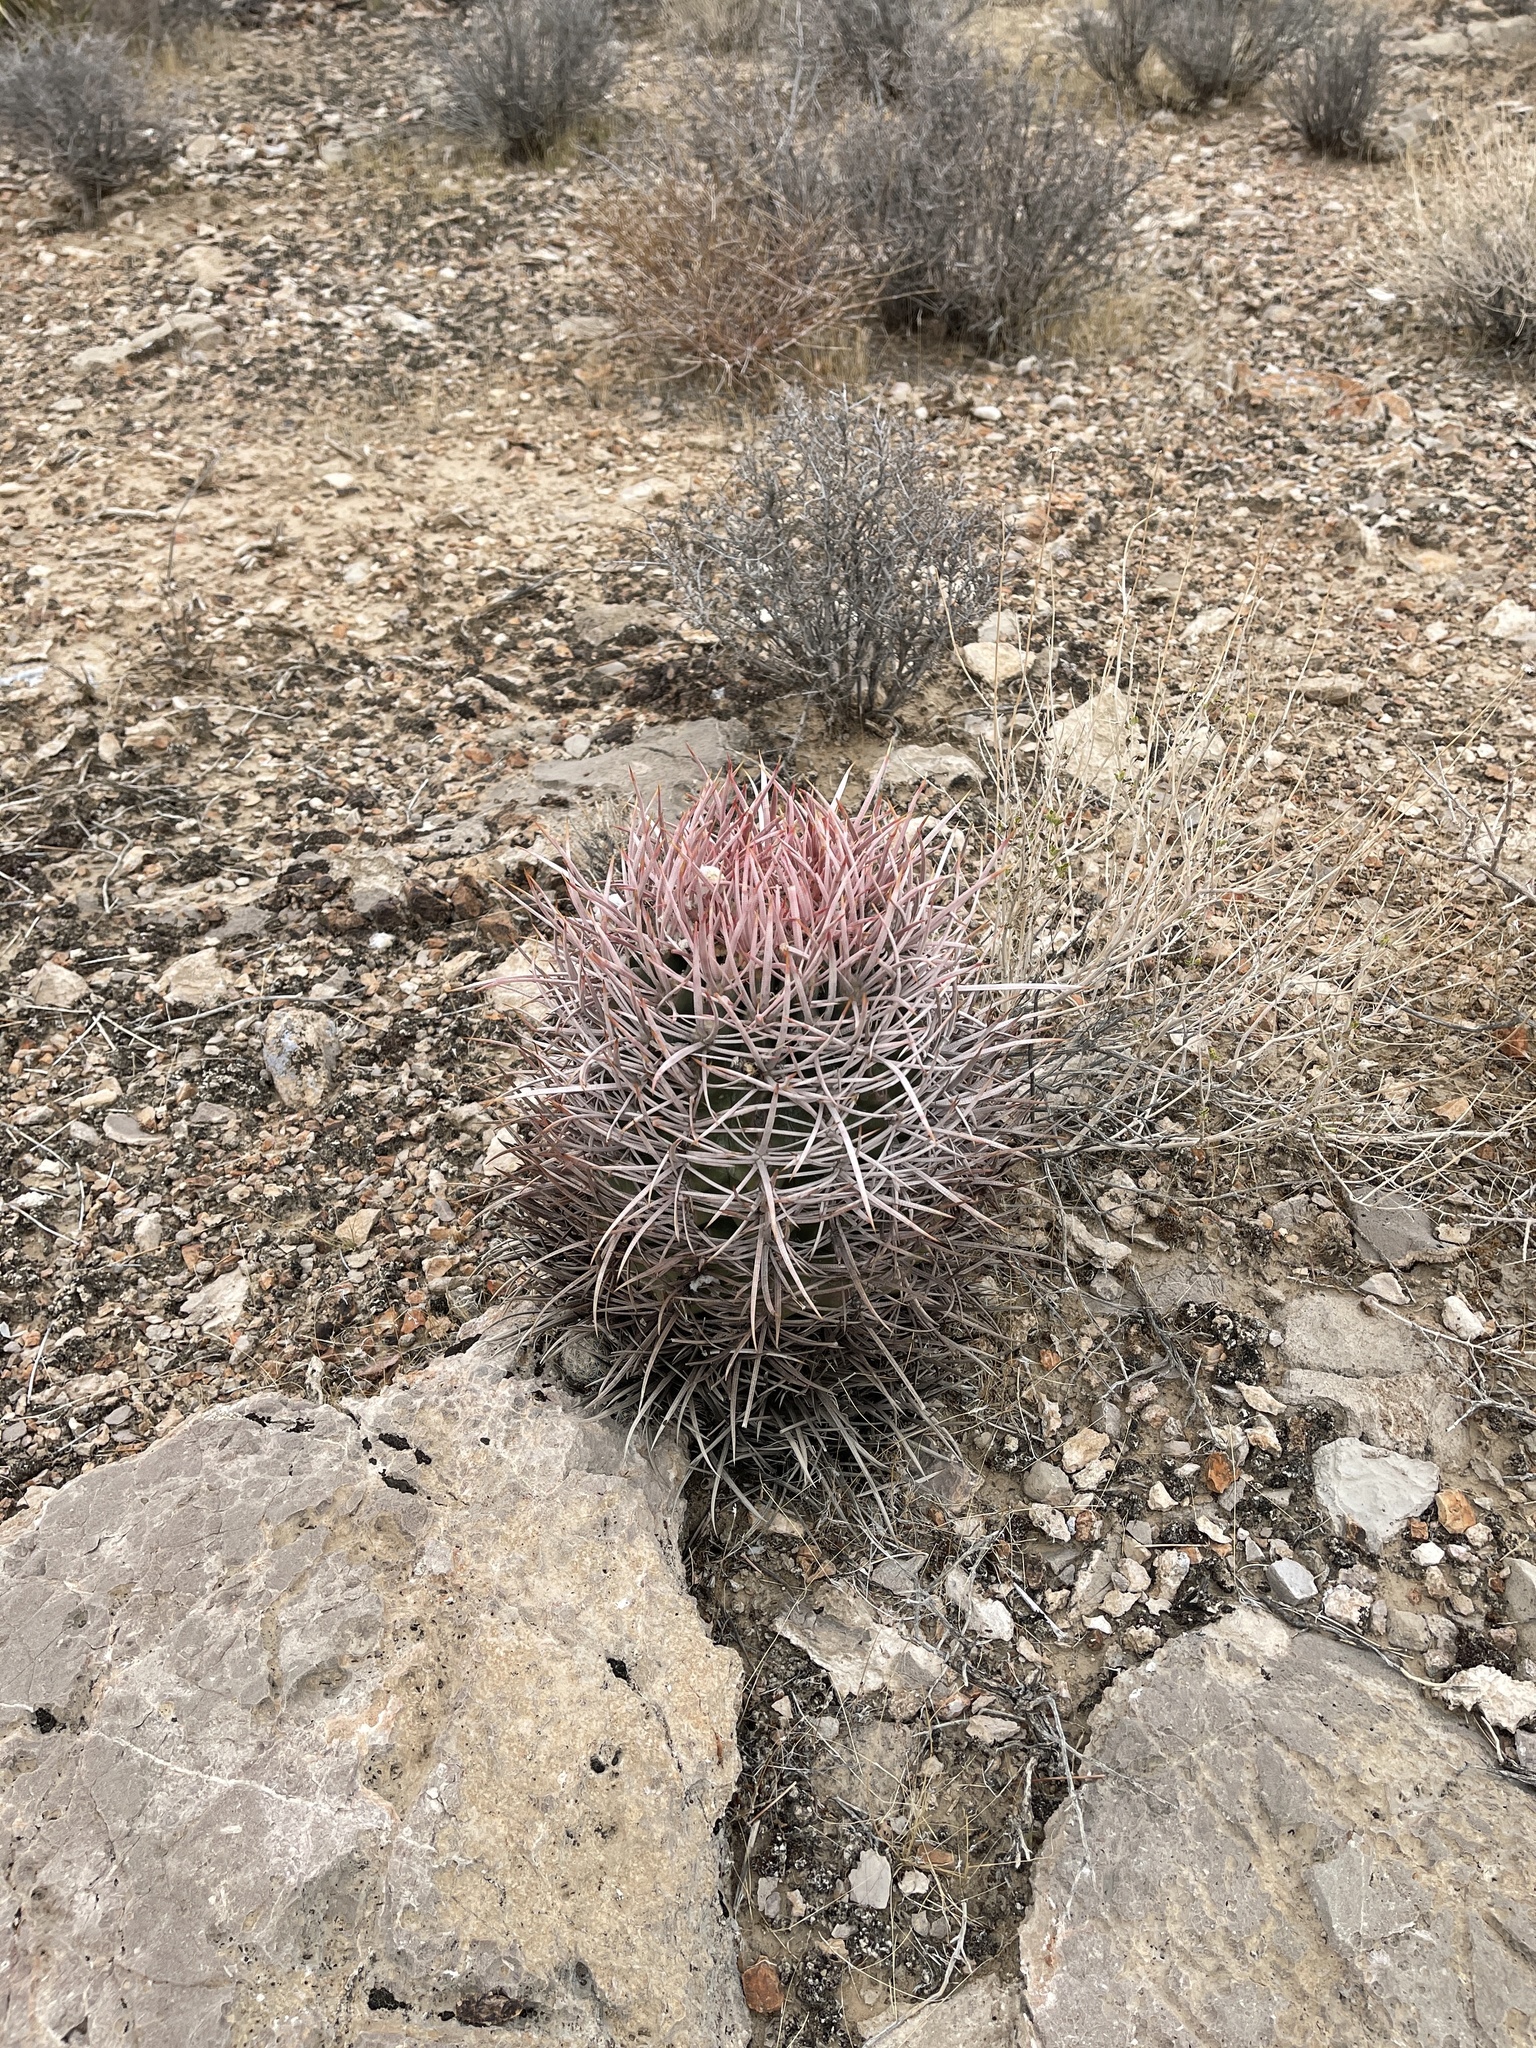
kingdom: Plantae
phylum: Tracheophyta
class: Magnoliopsida
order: Caryophyllales
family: Cactaceae
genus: Echinocactus
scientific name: Echinocactus polycephalus
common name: Cottontop cactus
